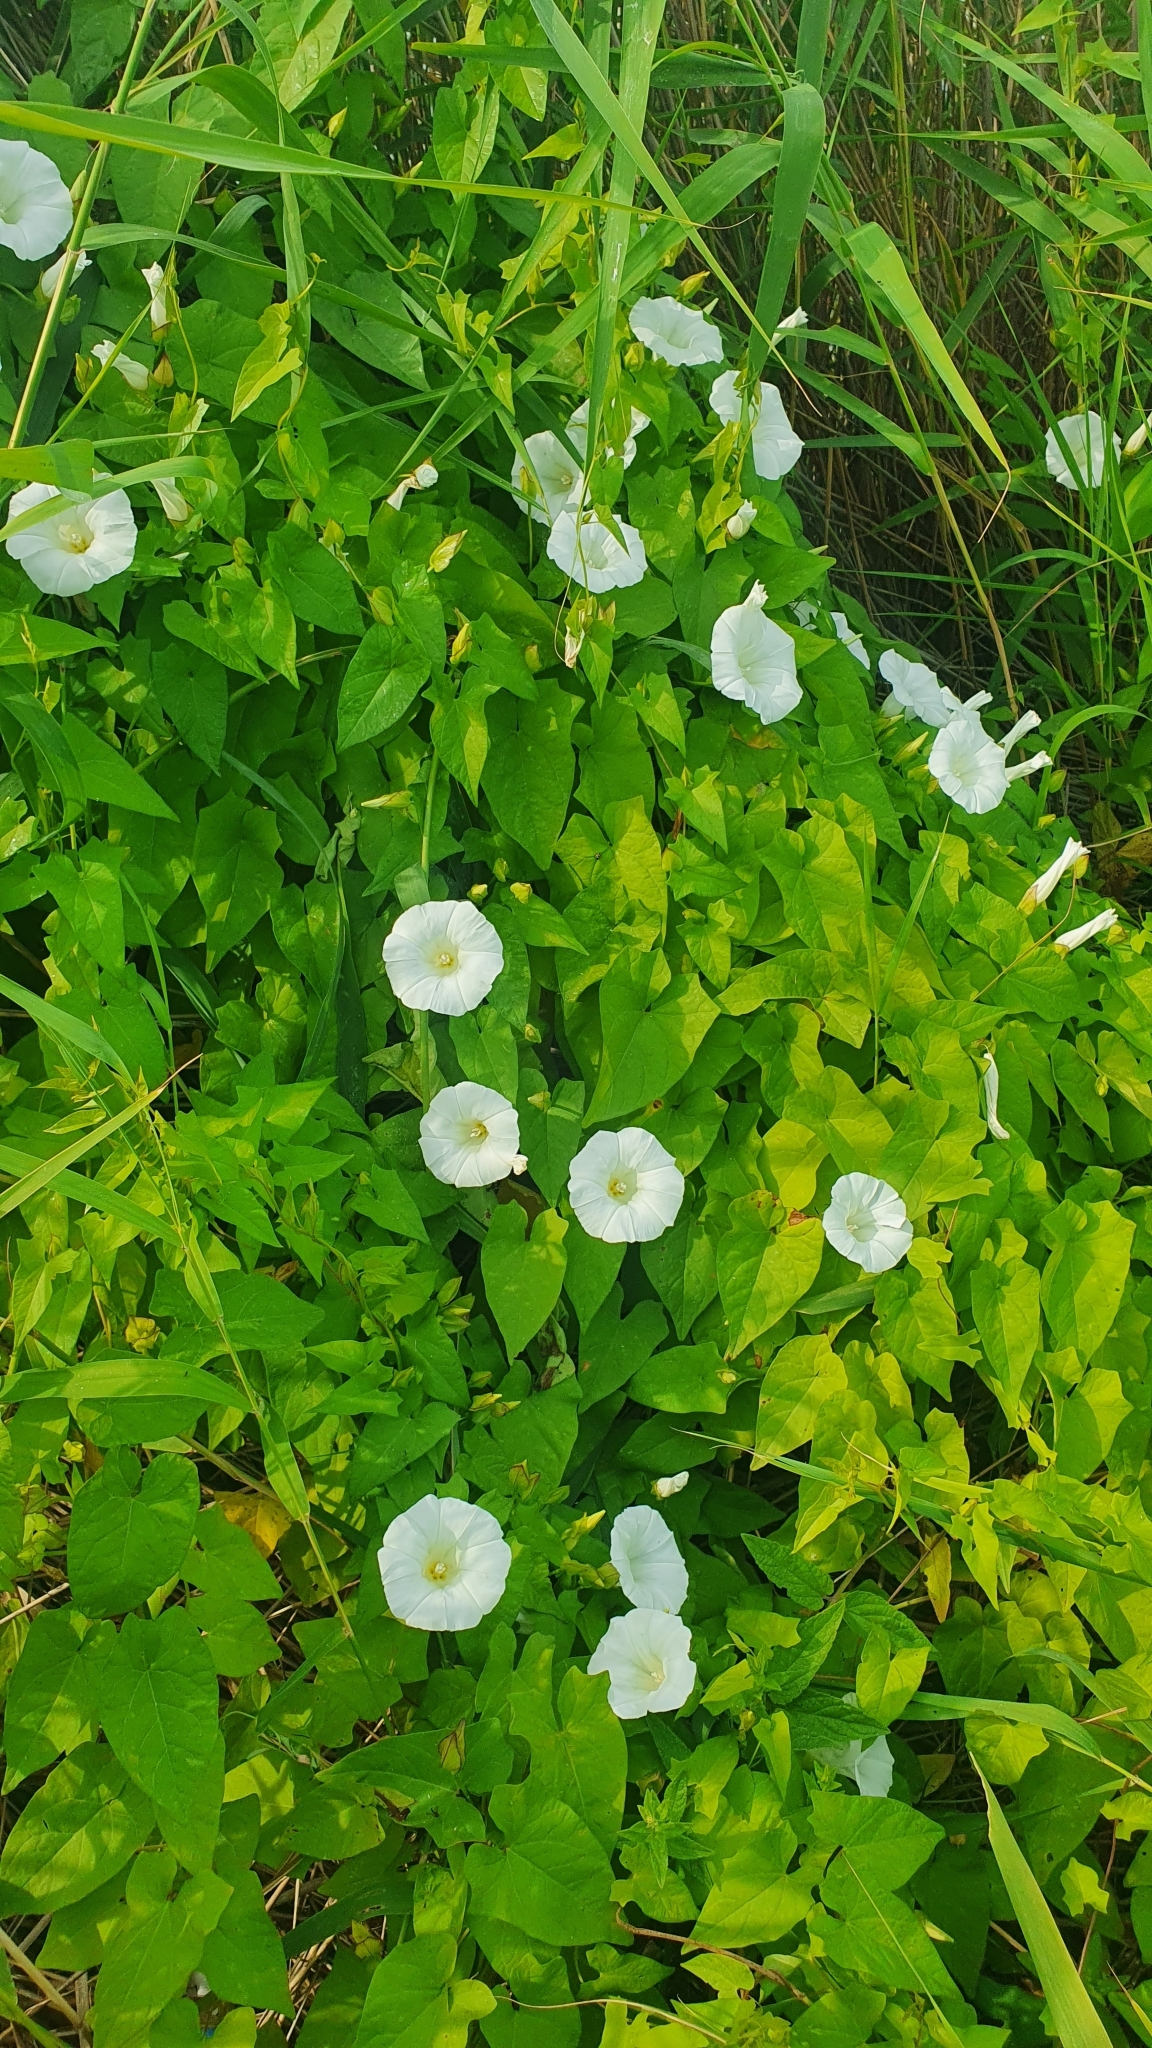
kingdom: Plantae
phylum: Tracheophyta
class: Magnoliopsida
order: Solanales
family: Convolvulaceae
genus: Calystegia
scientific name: Calystegia sepium
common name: Hedge bindweed
